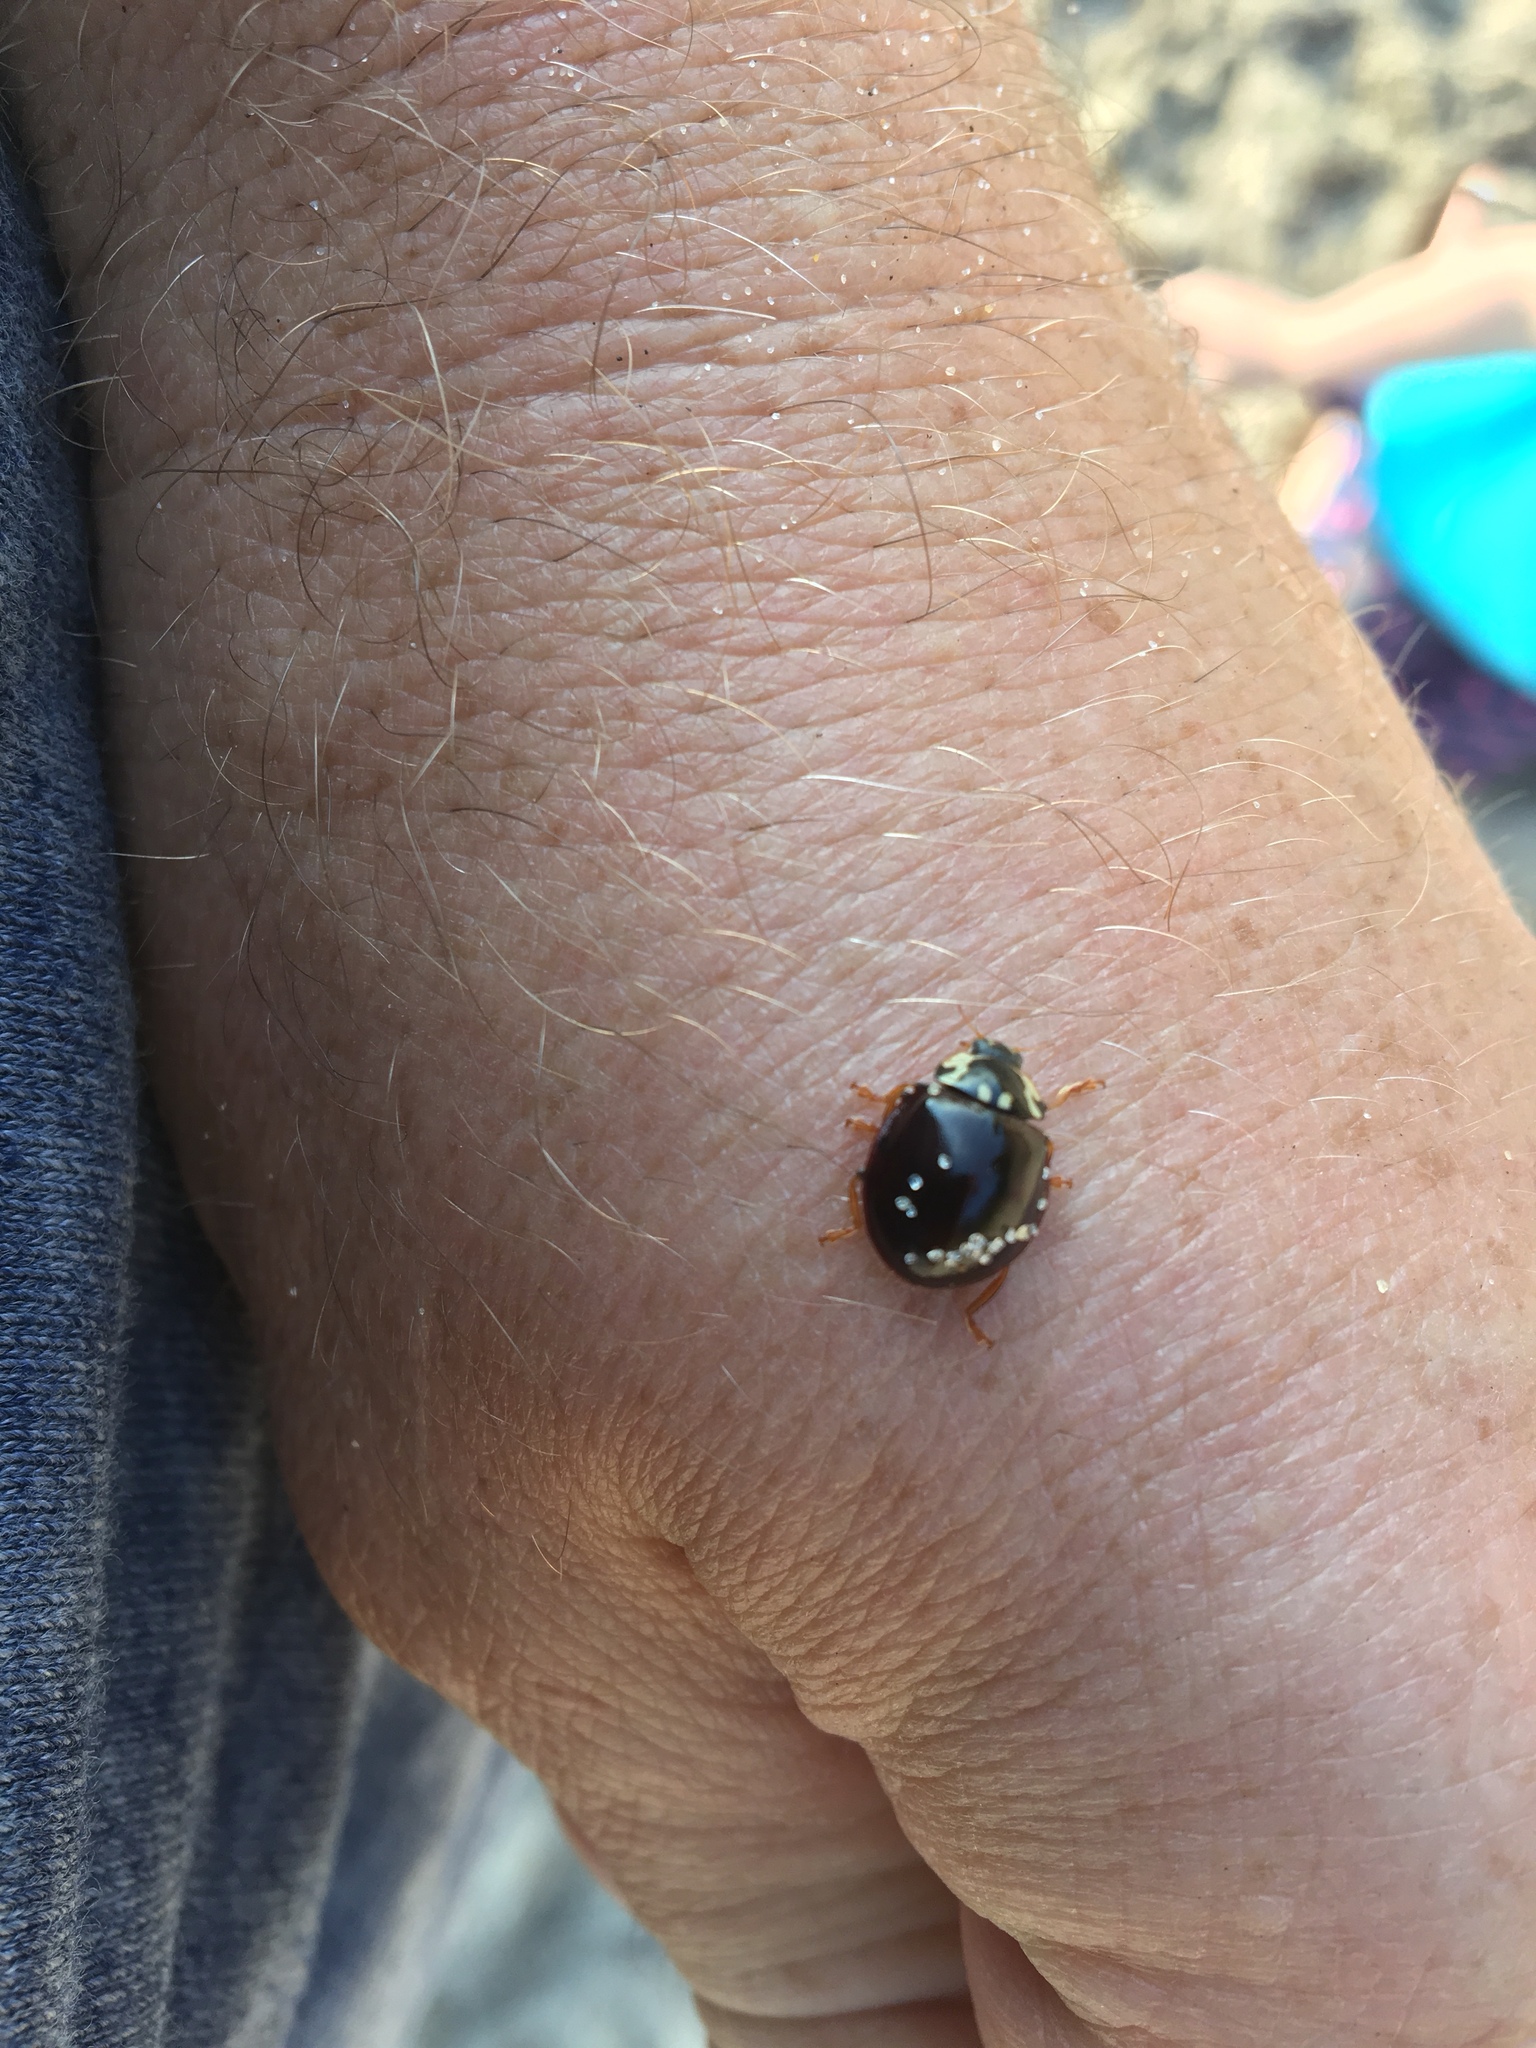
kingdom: Animalia
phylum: Arthropoda
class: Insecta
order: Coleoptera
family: Coccinellidae
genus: Anatis
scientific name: Anatis labiculata
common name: Fifteen-spotted lady beetle
